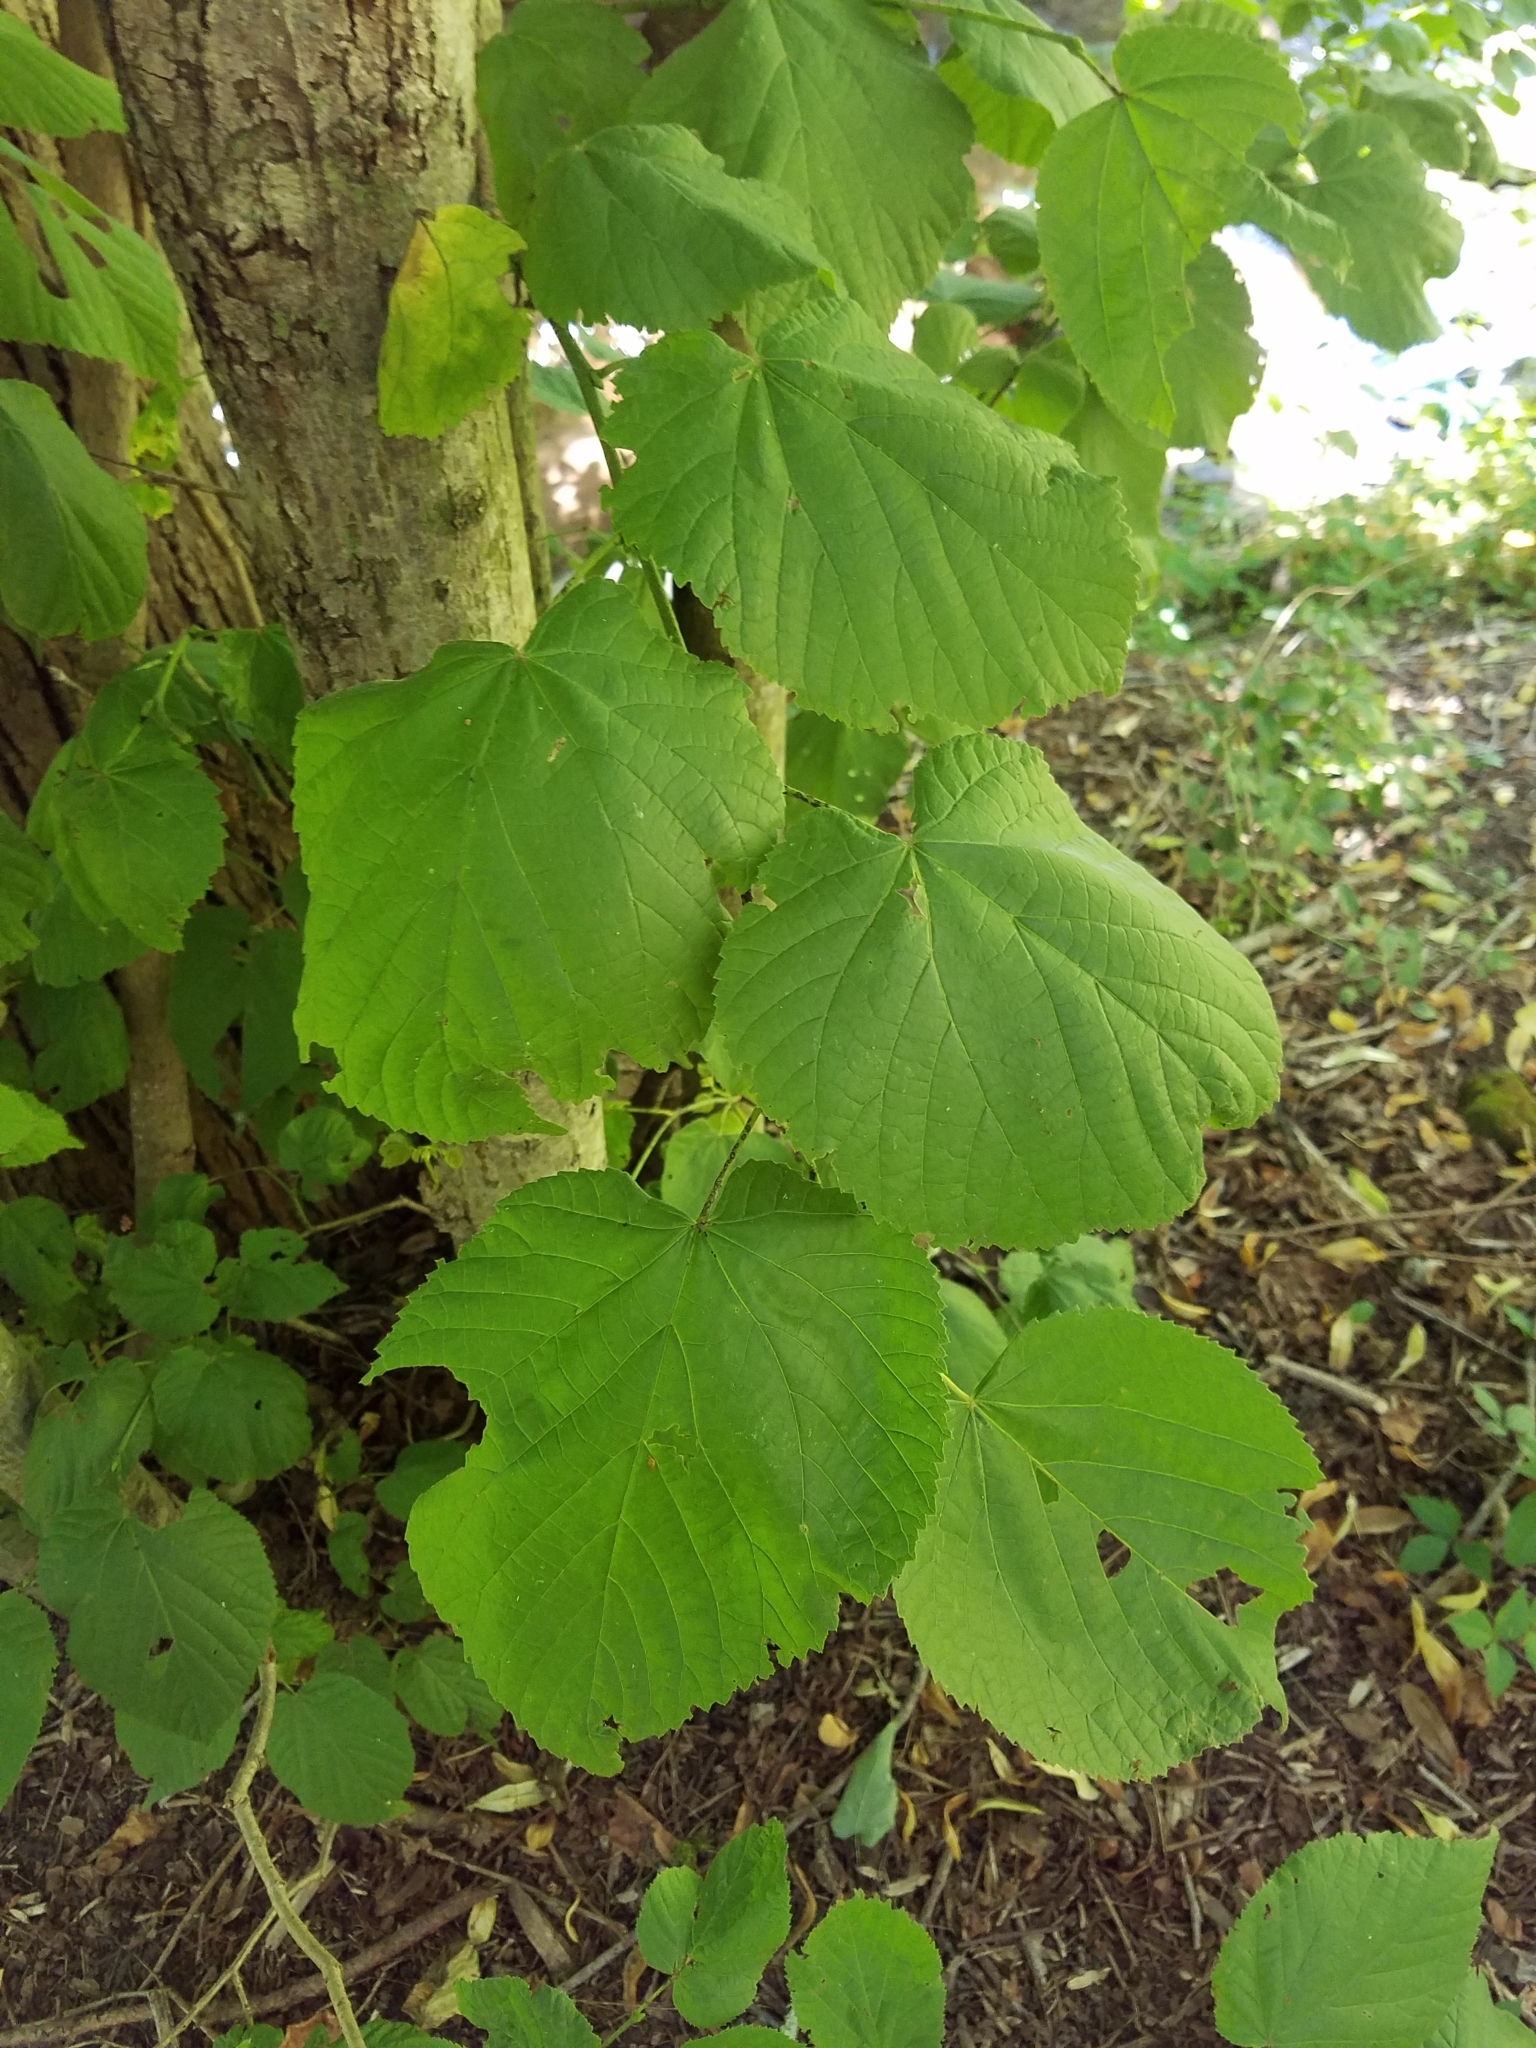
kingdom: Plantae
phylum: Tracheophyta
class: Magnoliopsida
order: Malvales
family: Malvaceae
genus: Tilia
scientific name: Tilia americana
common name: Basswood
